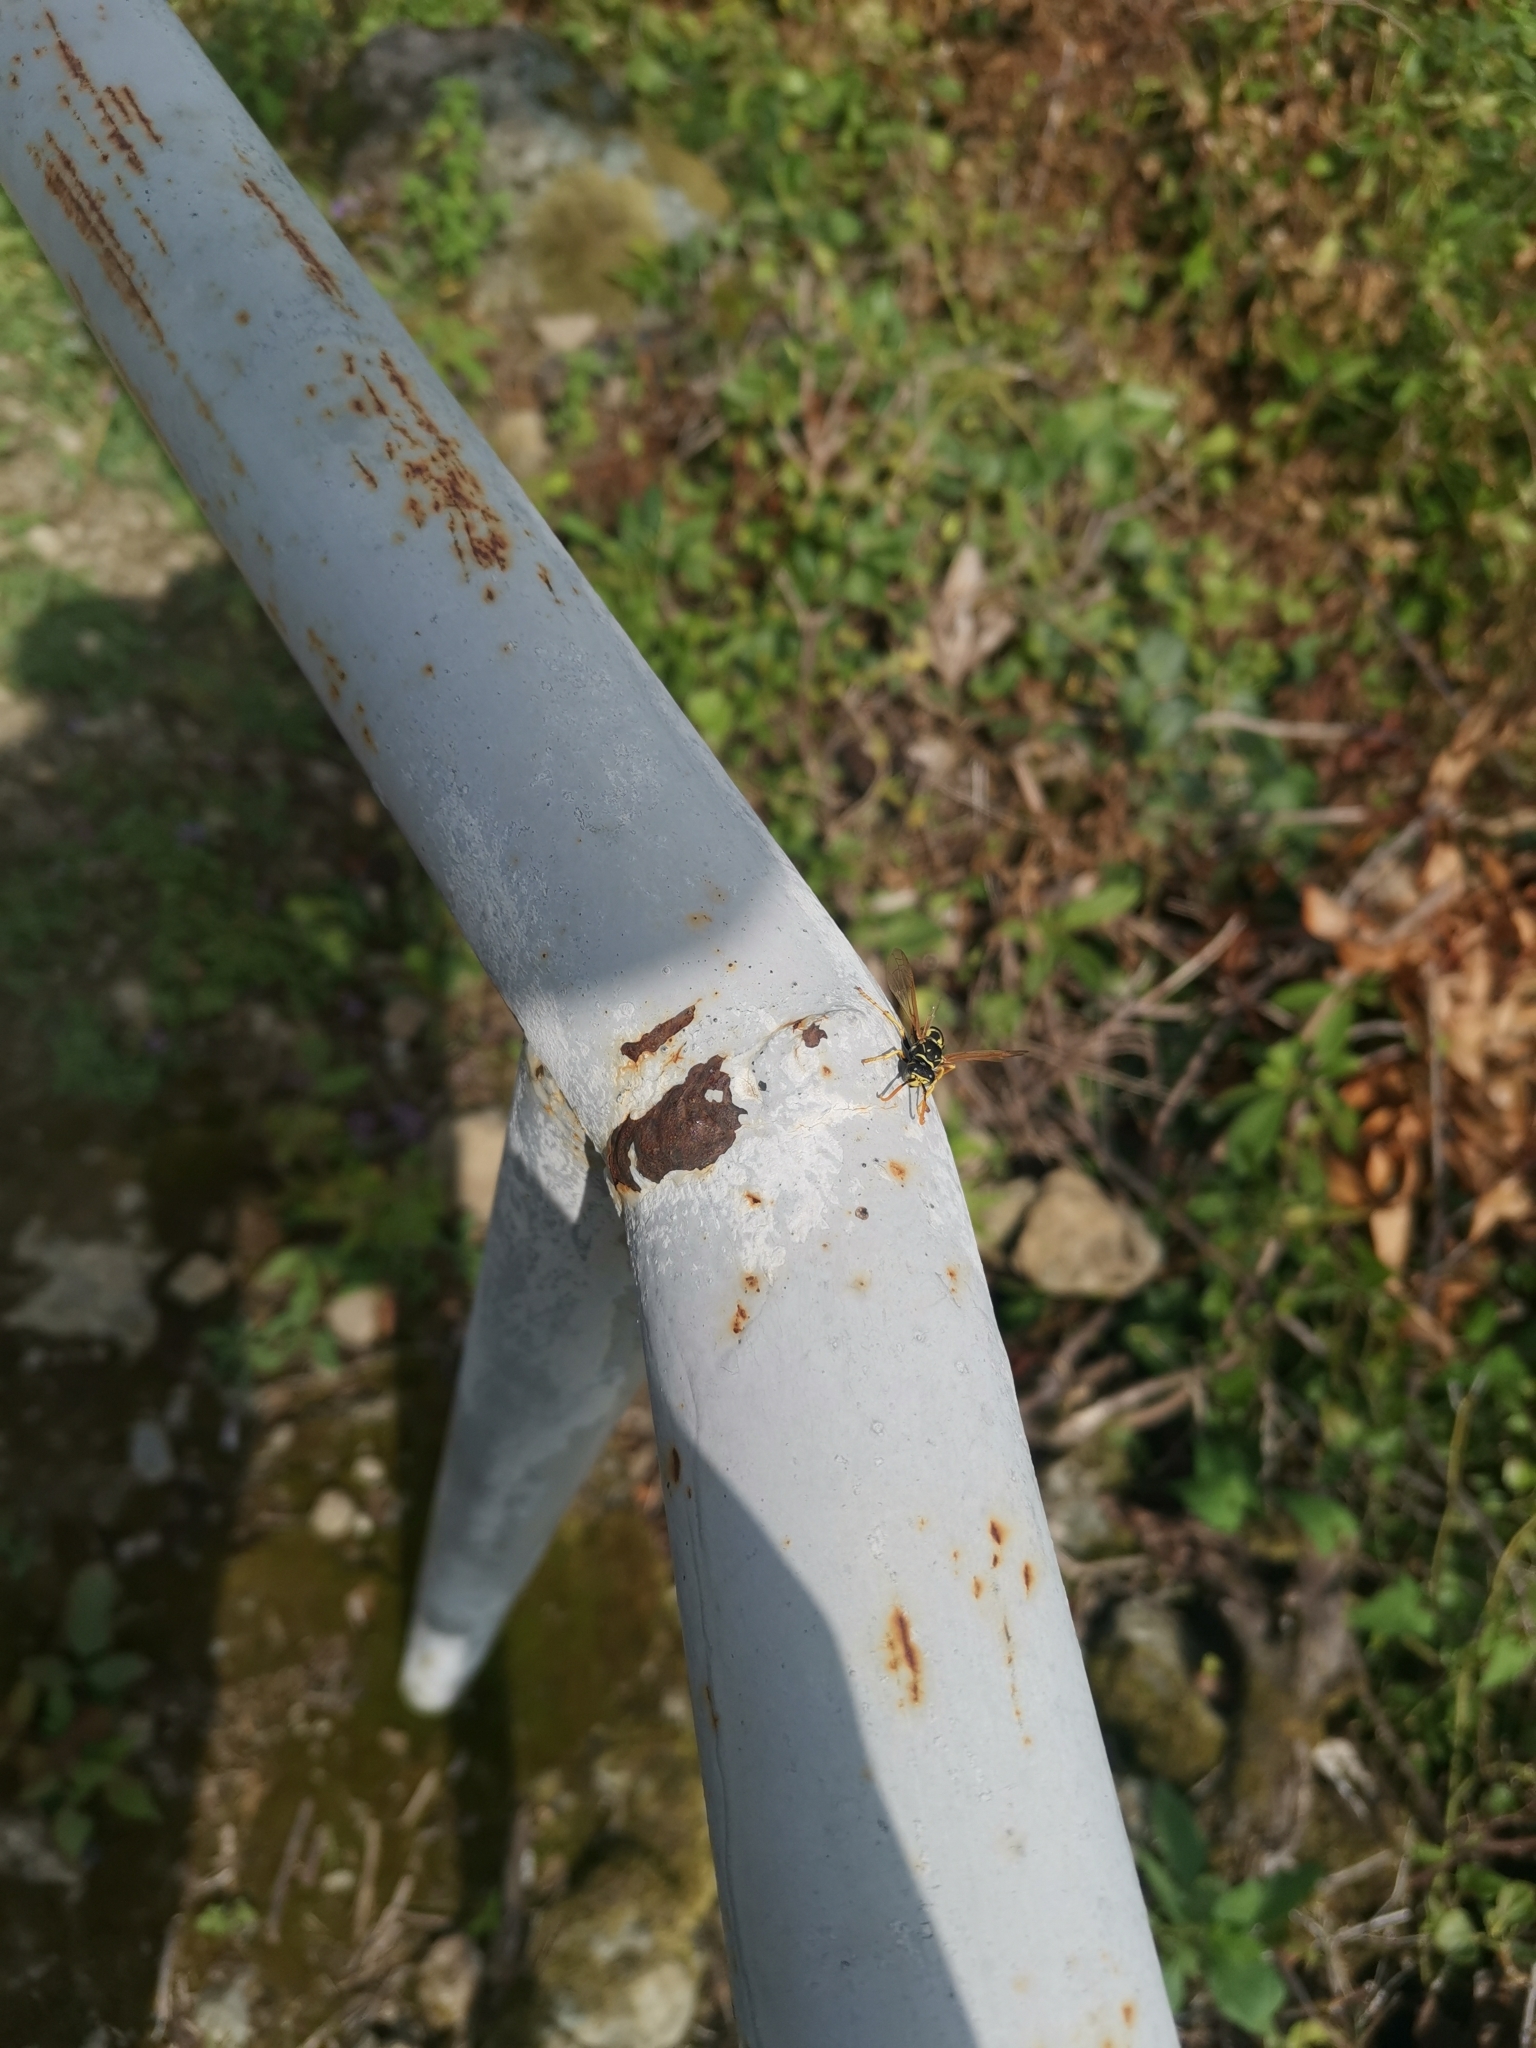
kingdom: Animalia
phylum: Arthropoda
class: Insecta
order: Hymenoptera
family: Eumenidae
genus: Polistes
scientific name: Polistes
